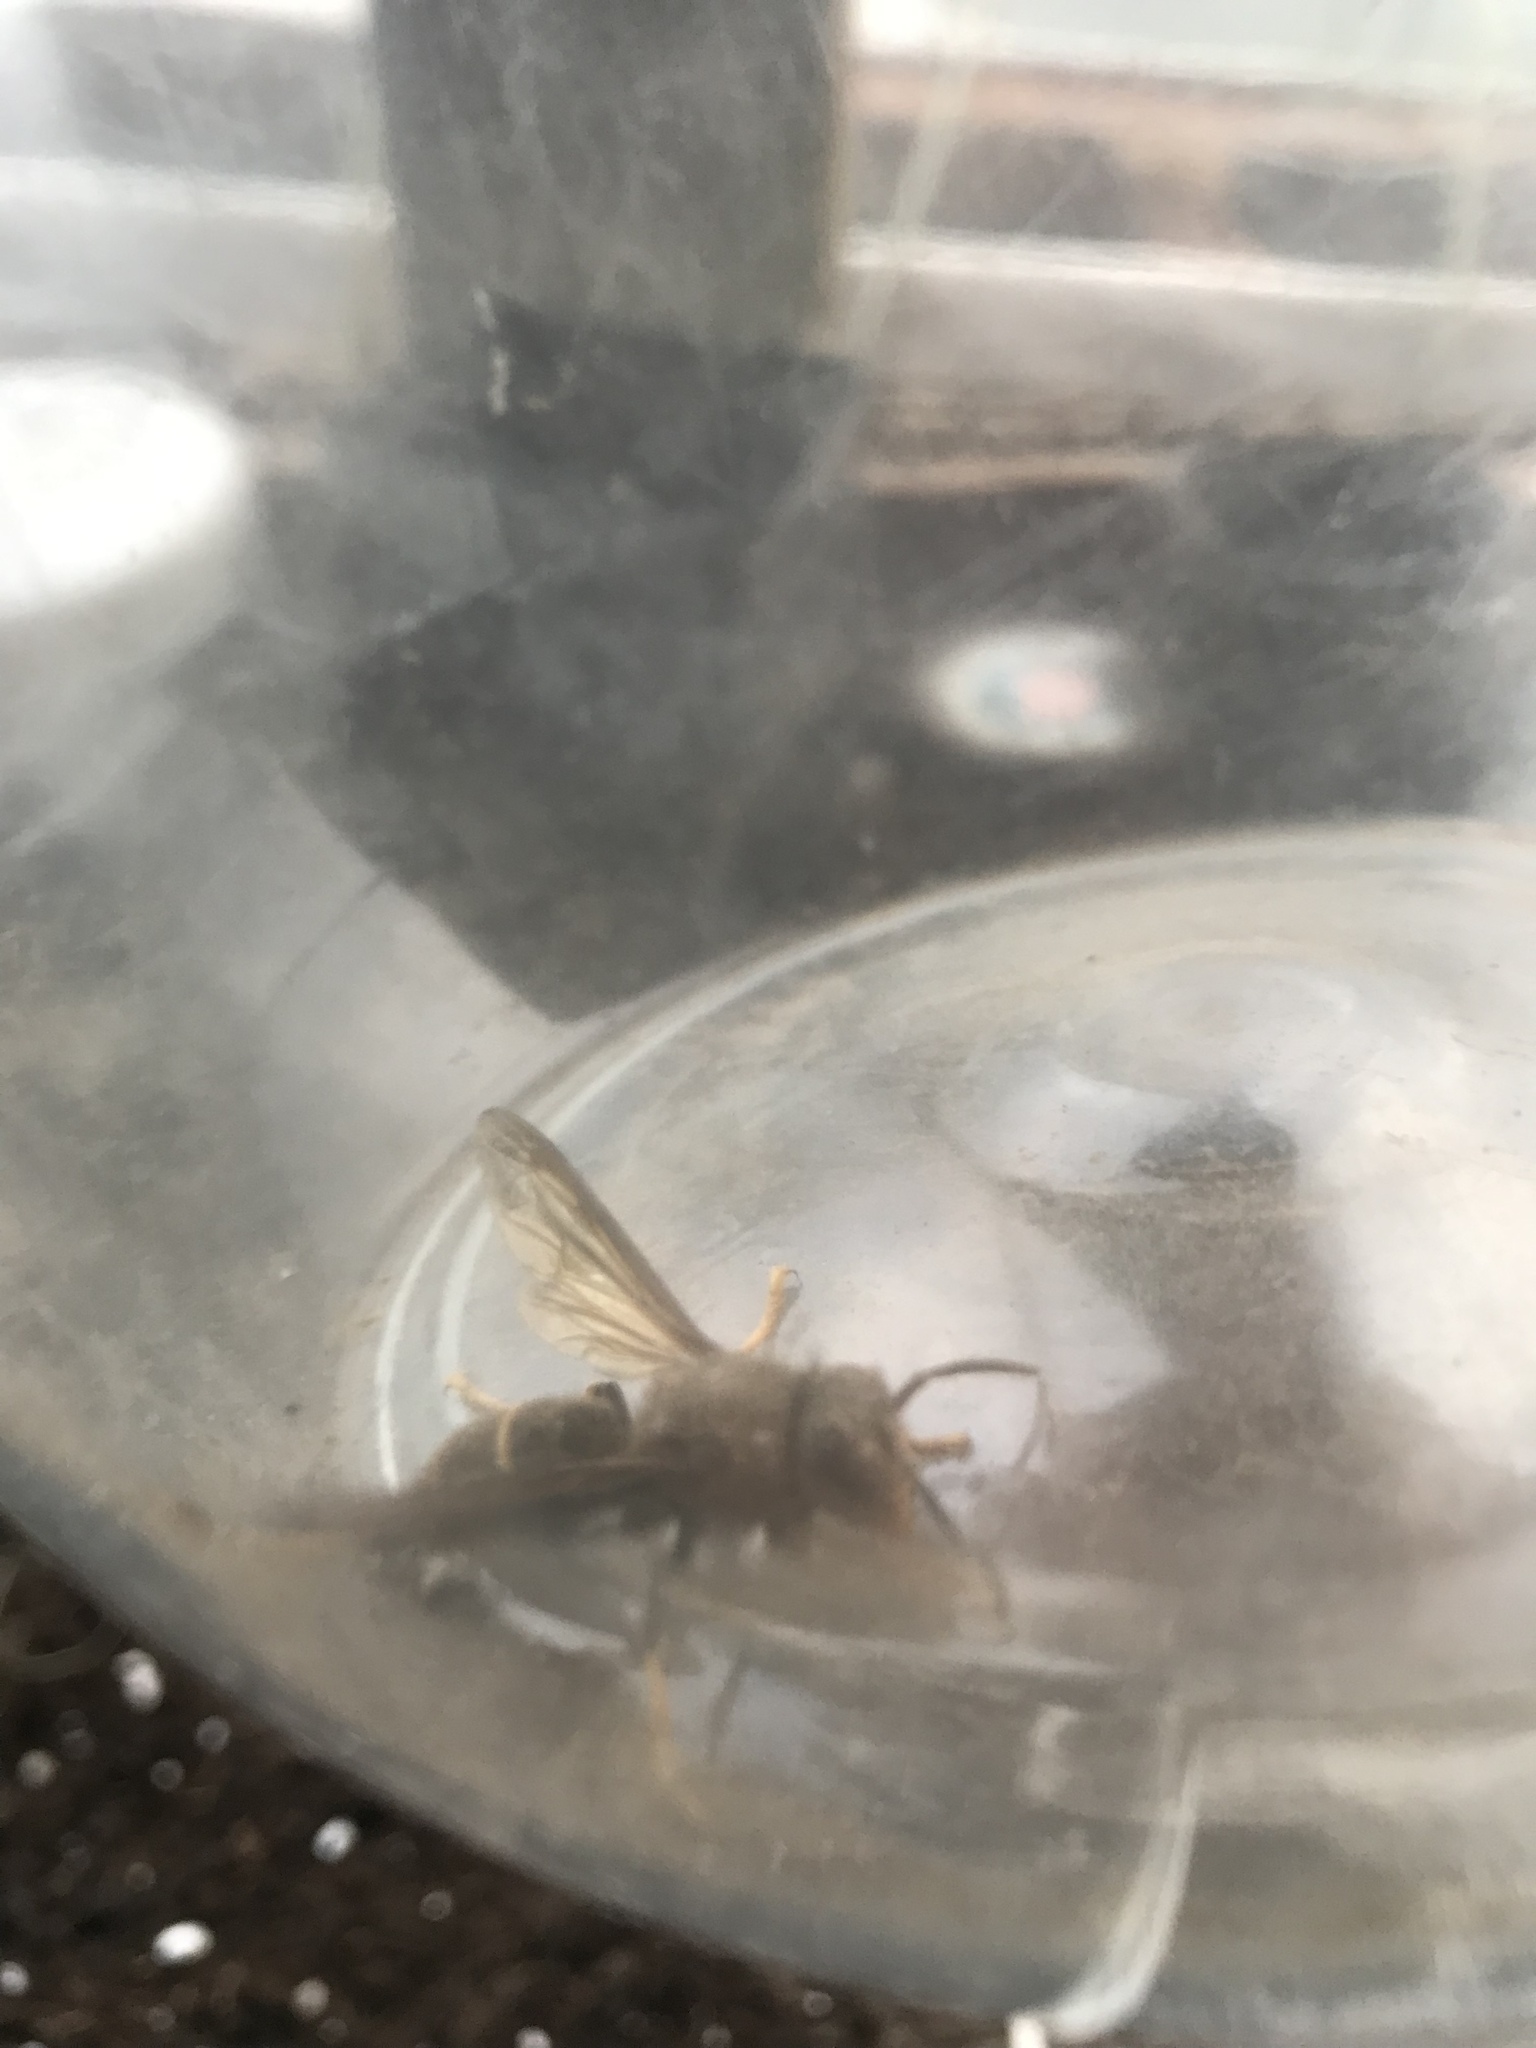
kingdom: Animalia
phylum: Arthropoda
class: Insecta
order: Hymenoptera
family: Vespidae
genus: Vespa
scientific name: Vespa velutina
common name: Asian hornet
